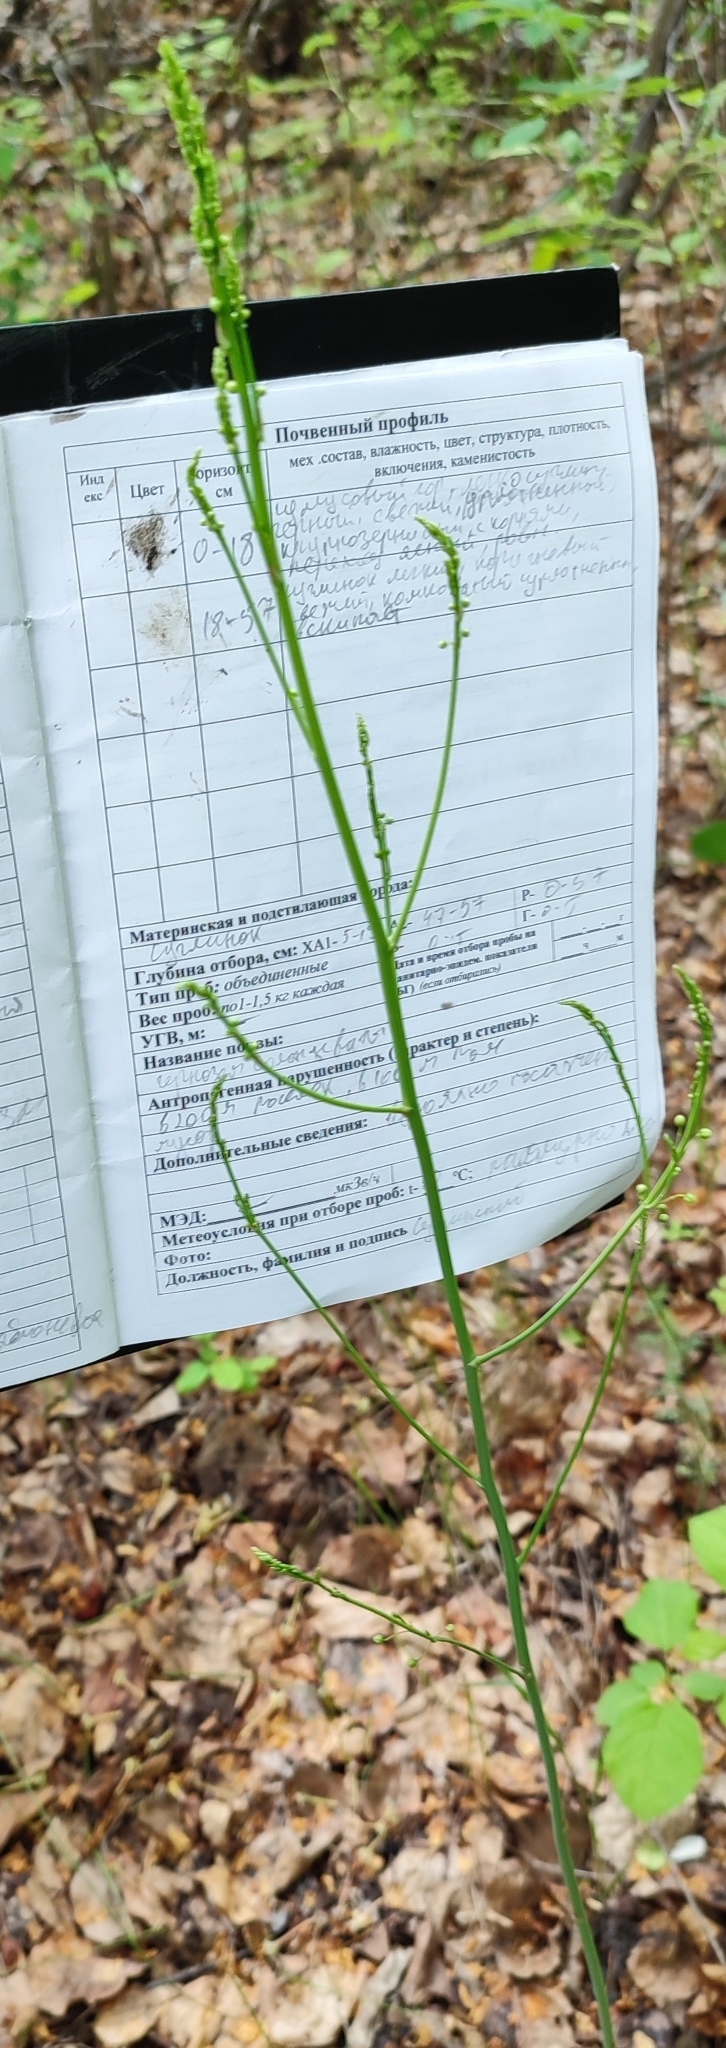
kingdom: Plantae
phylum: Tracheophyta
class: Liliopsida
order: Asparagales
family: Asparagaceae
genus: Asparagus
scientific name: Asparagus officinalis
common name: Garden asparagus
